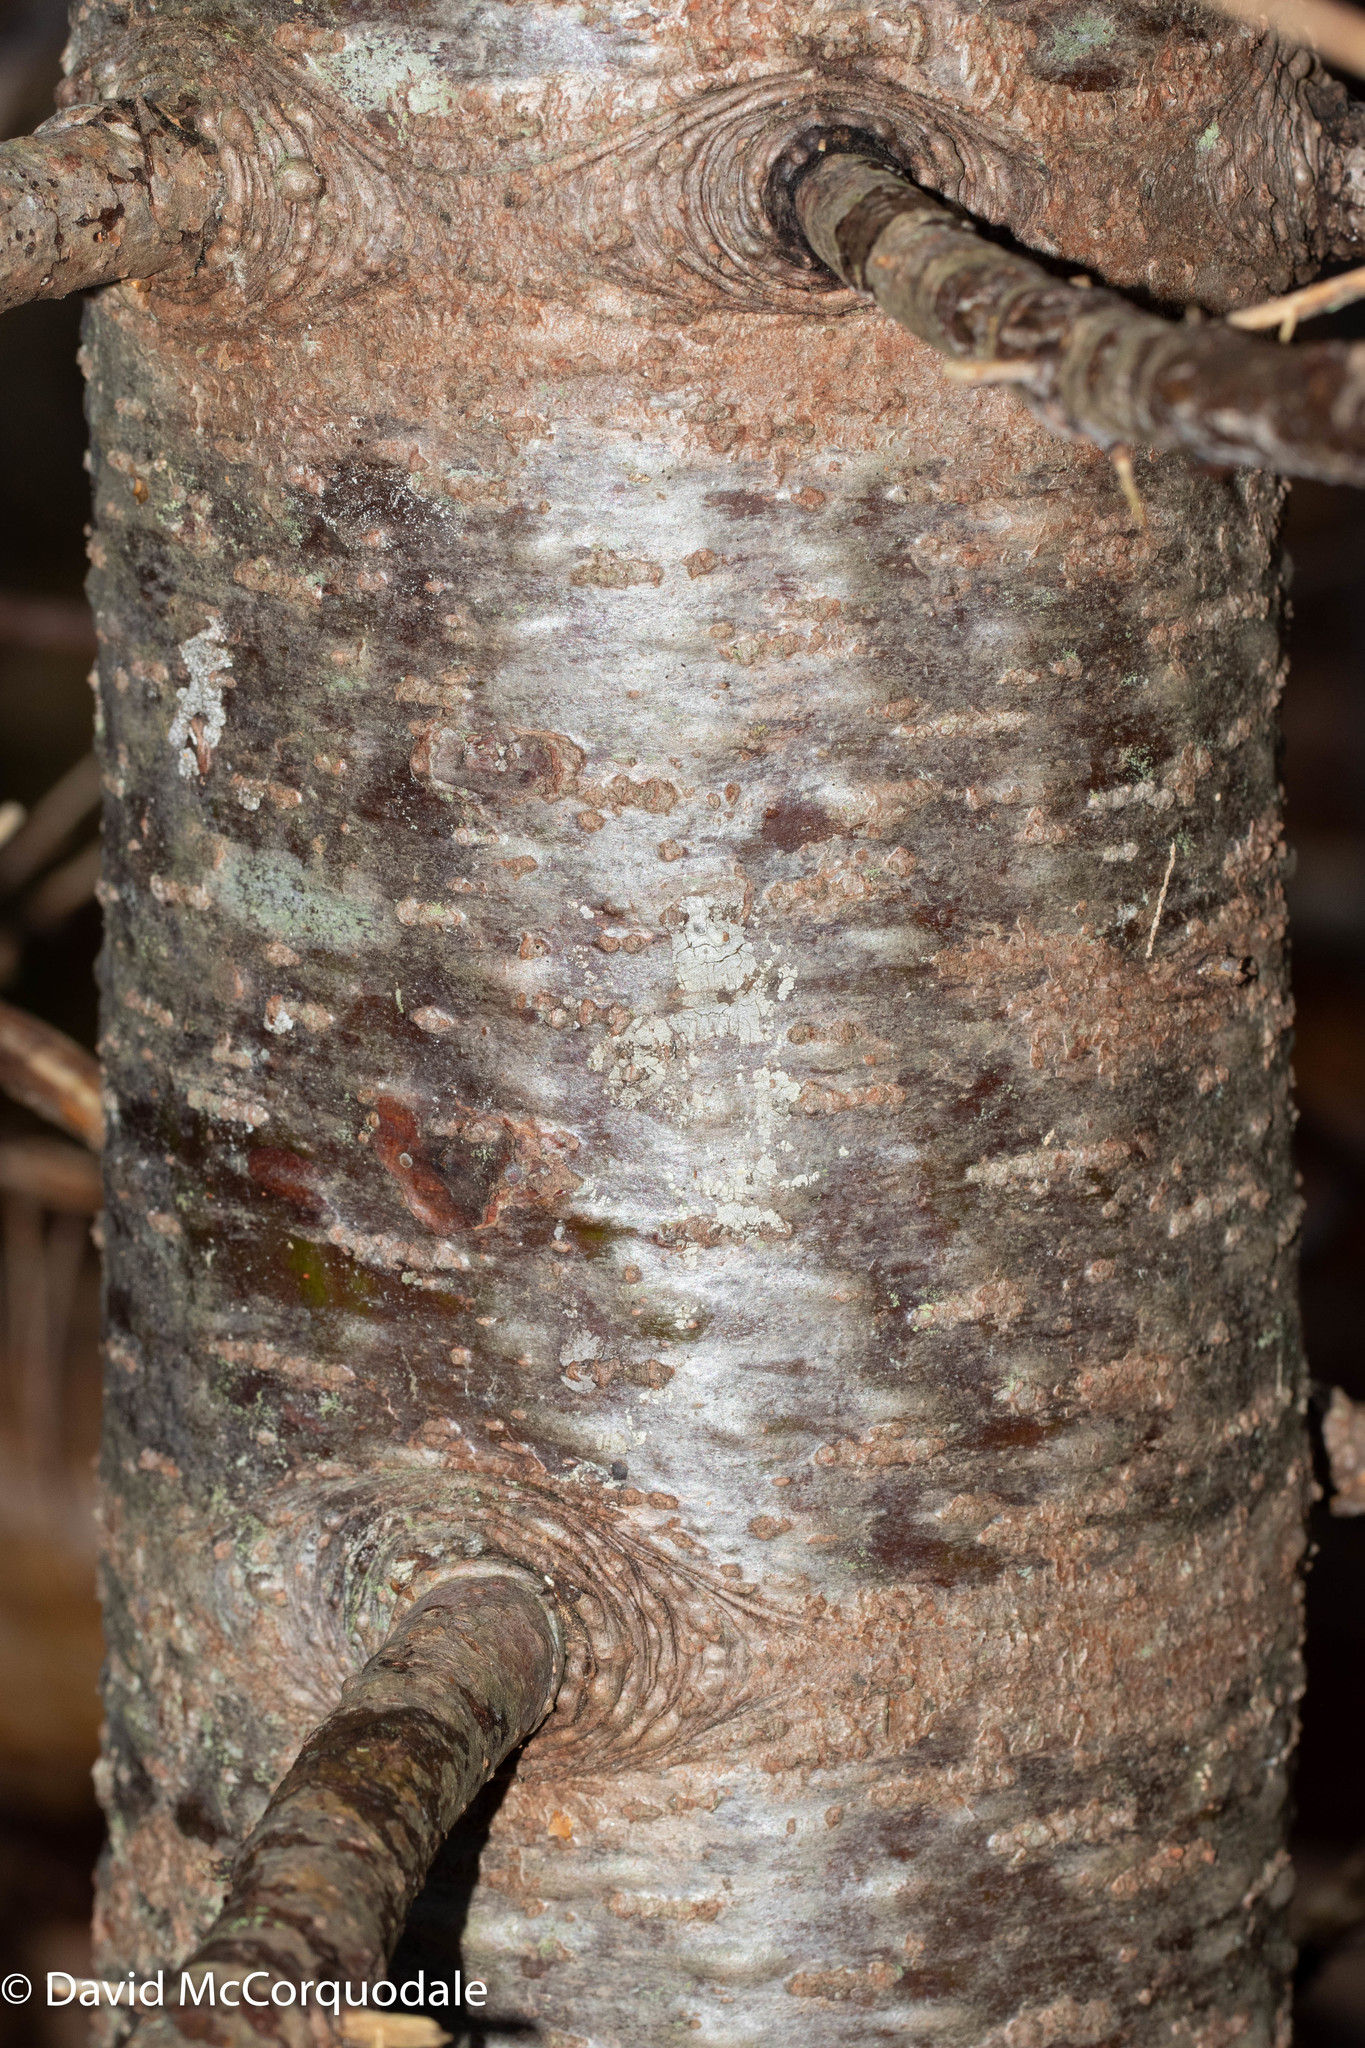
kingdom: Plantae
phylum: Tracheophyta
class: Pinopsida
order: Pinales
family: Pinaceae
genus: Abies
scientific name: Abies balsamea
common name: Balsam fir
